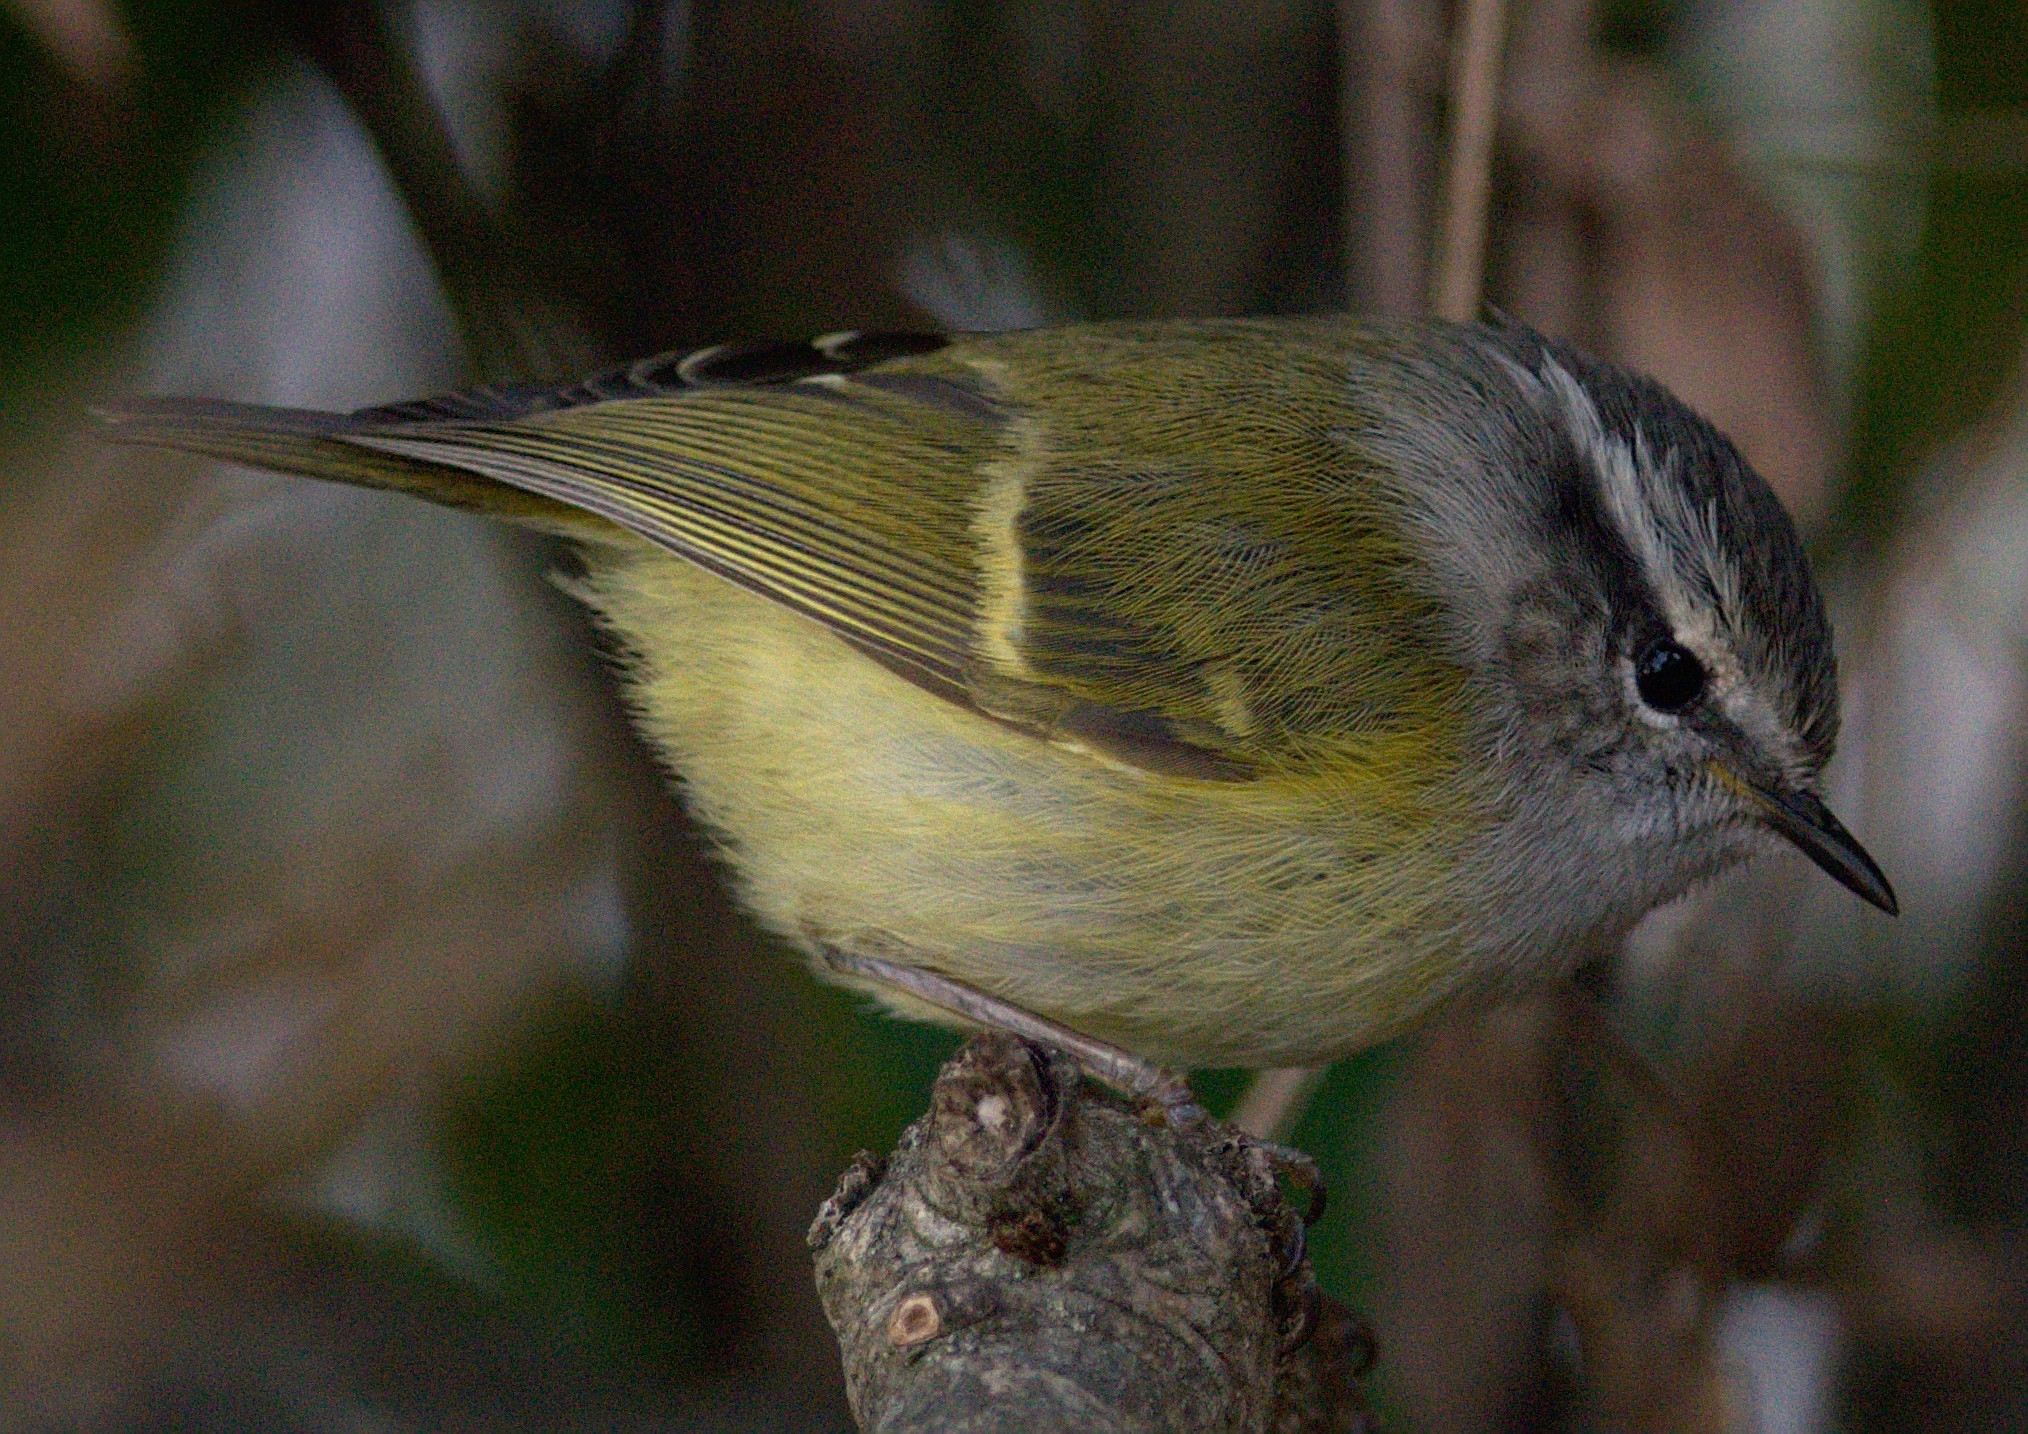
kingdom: Animalia
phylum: Chordata
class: Aves
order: Passeriformes
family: Phylloscopidae
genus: Phylloscopus
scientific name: Phylloscopus maculipennis
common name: Ashy-throated warbler
